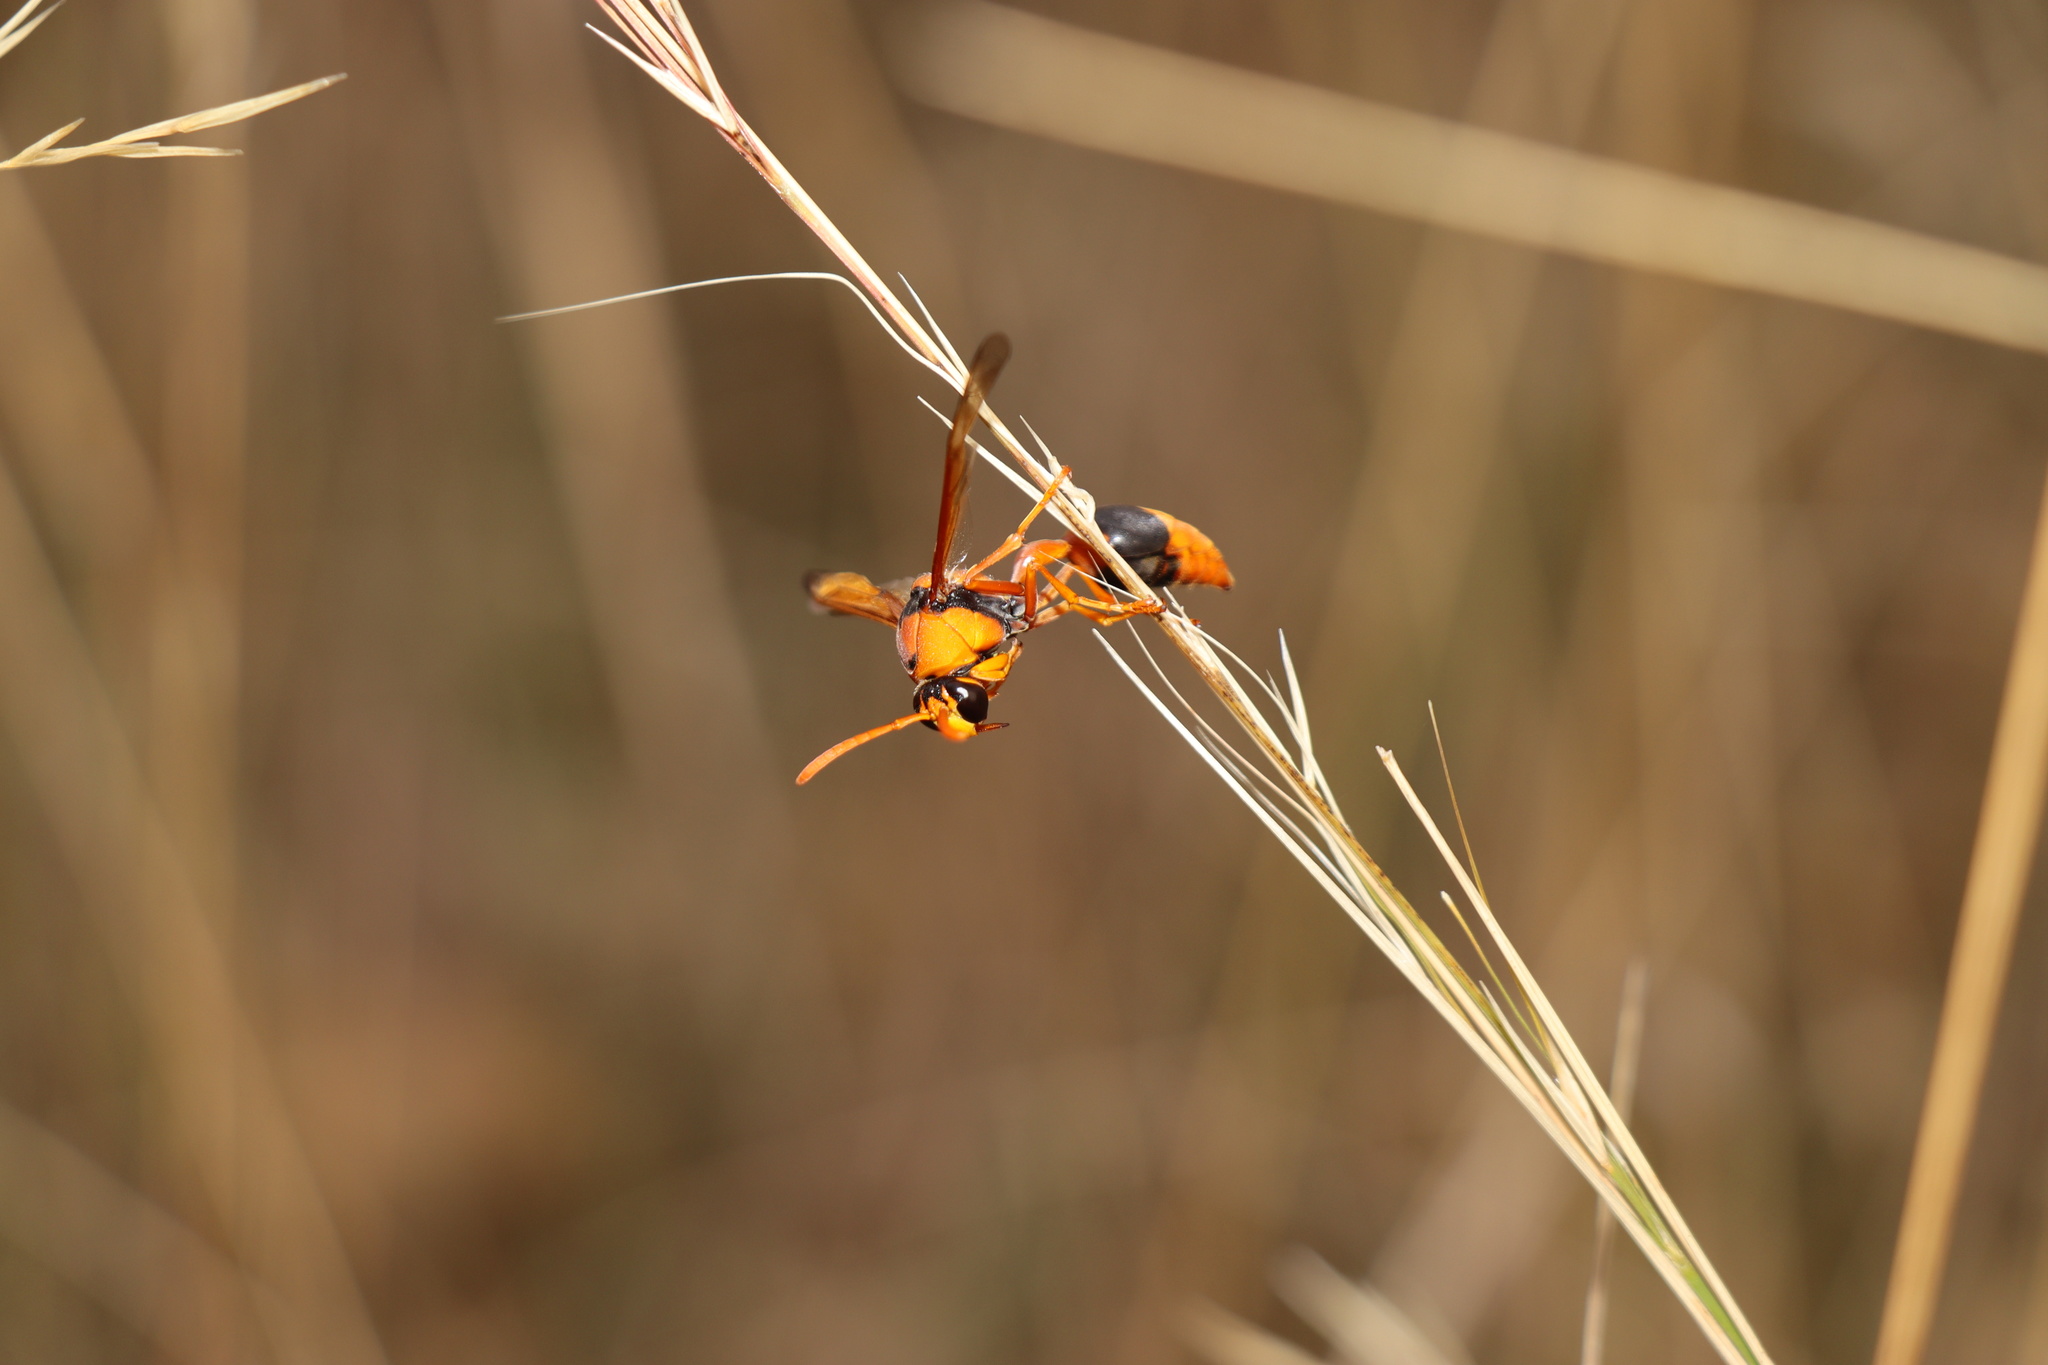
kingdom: Animalia
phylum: Arthropoda
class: Insecta
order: Hymenoptera
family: Eumenidae
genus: Delta
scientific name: Delta bicinctum
